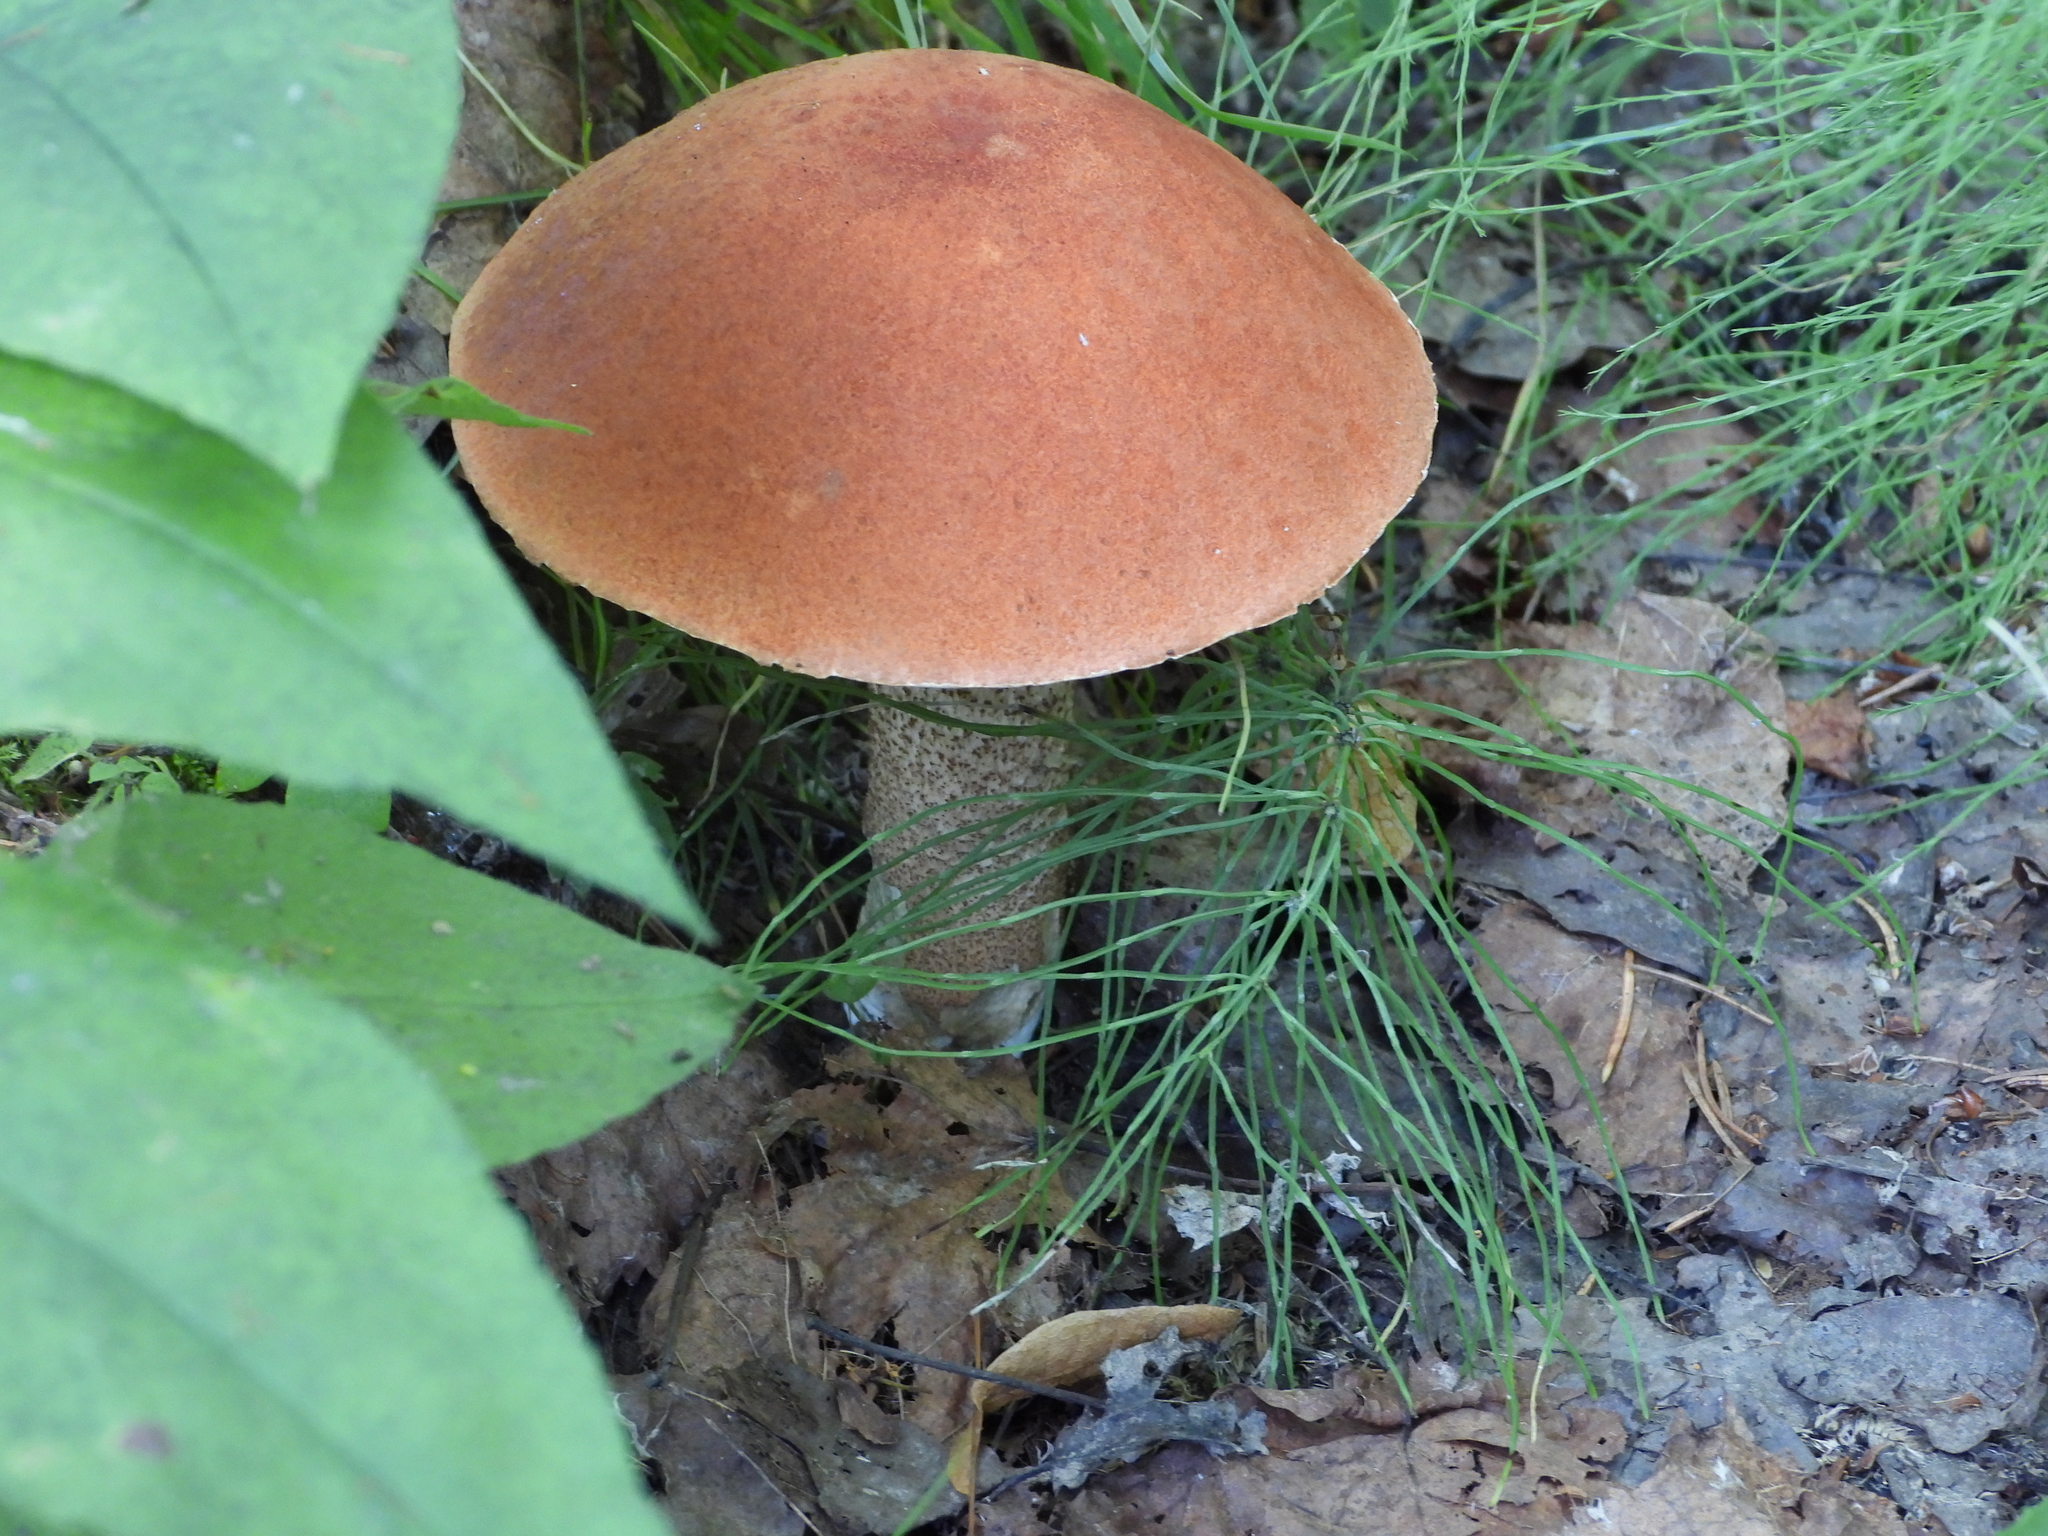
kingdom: Fungi
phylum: Basidiomycota
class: Agaricomycetes
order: Boletales
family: Boletaceae
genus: Leccinum
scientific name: Leccinum aurantiacum
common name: Orange bolete
